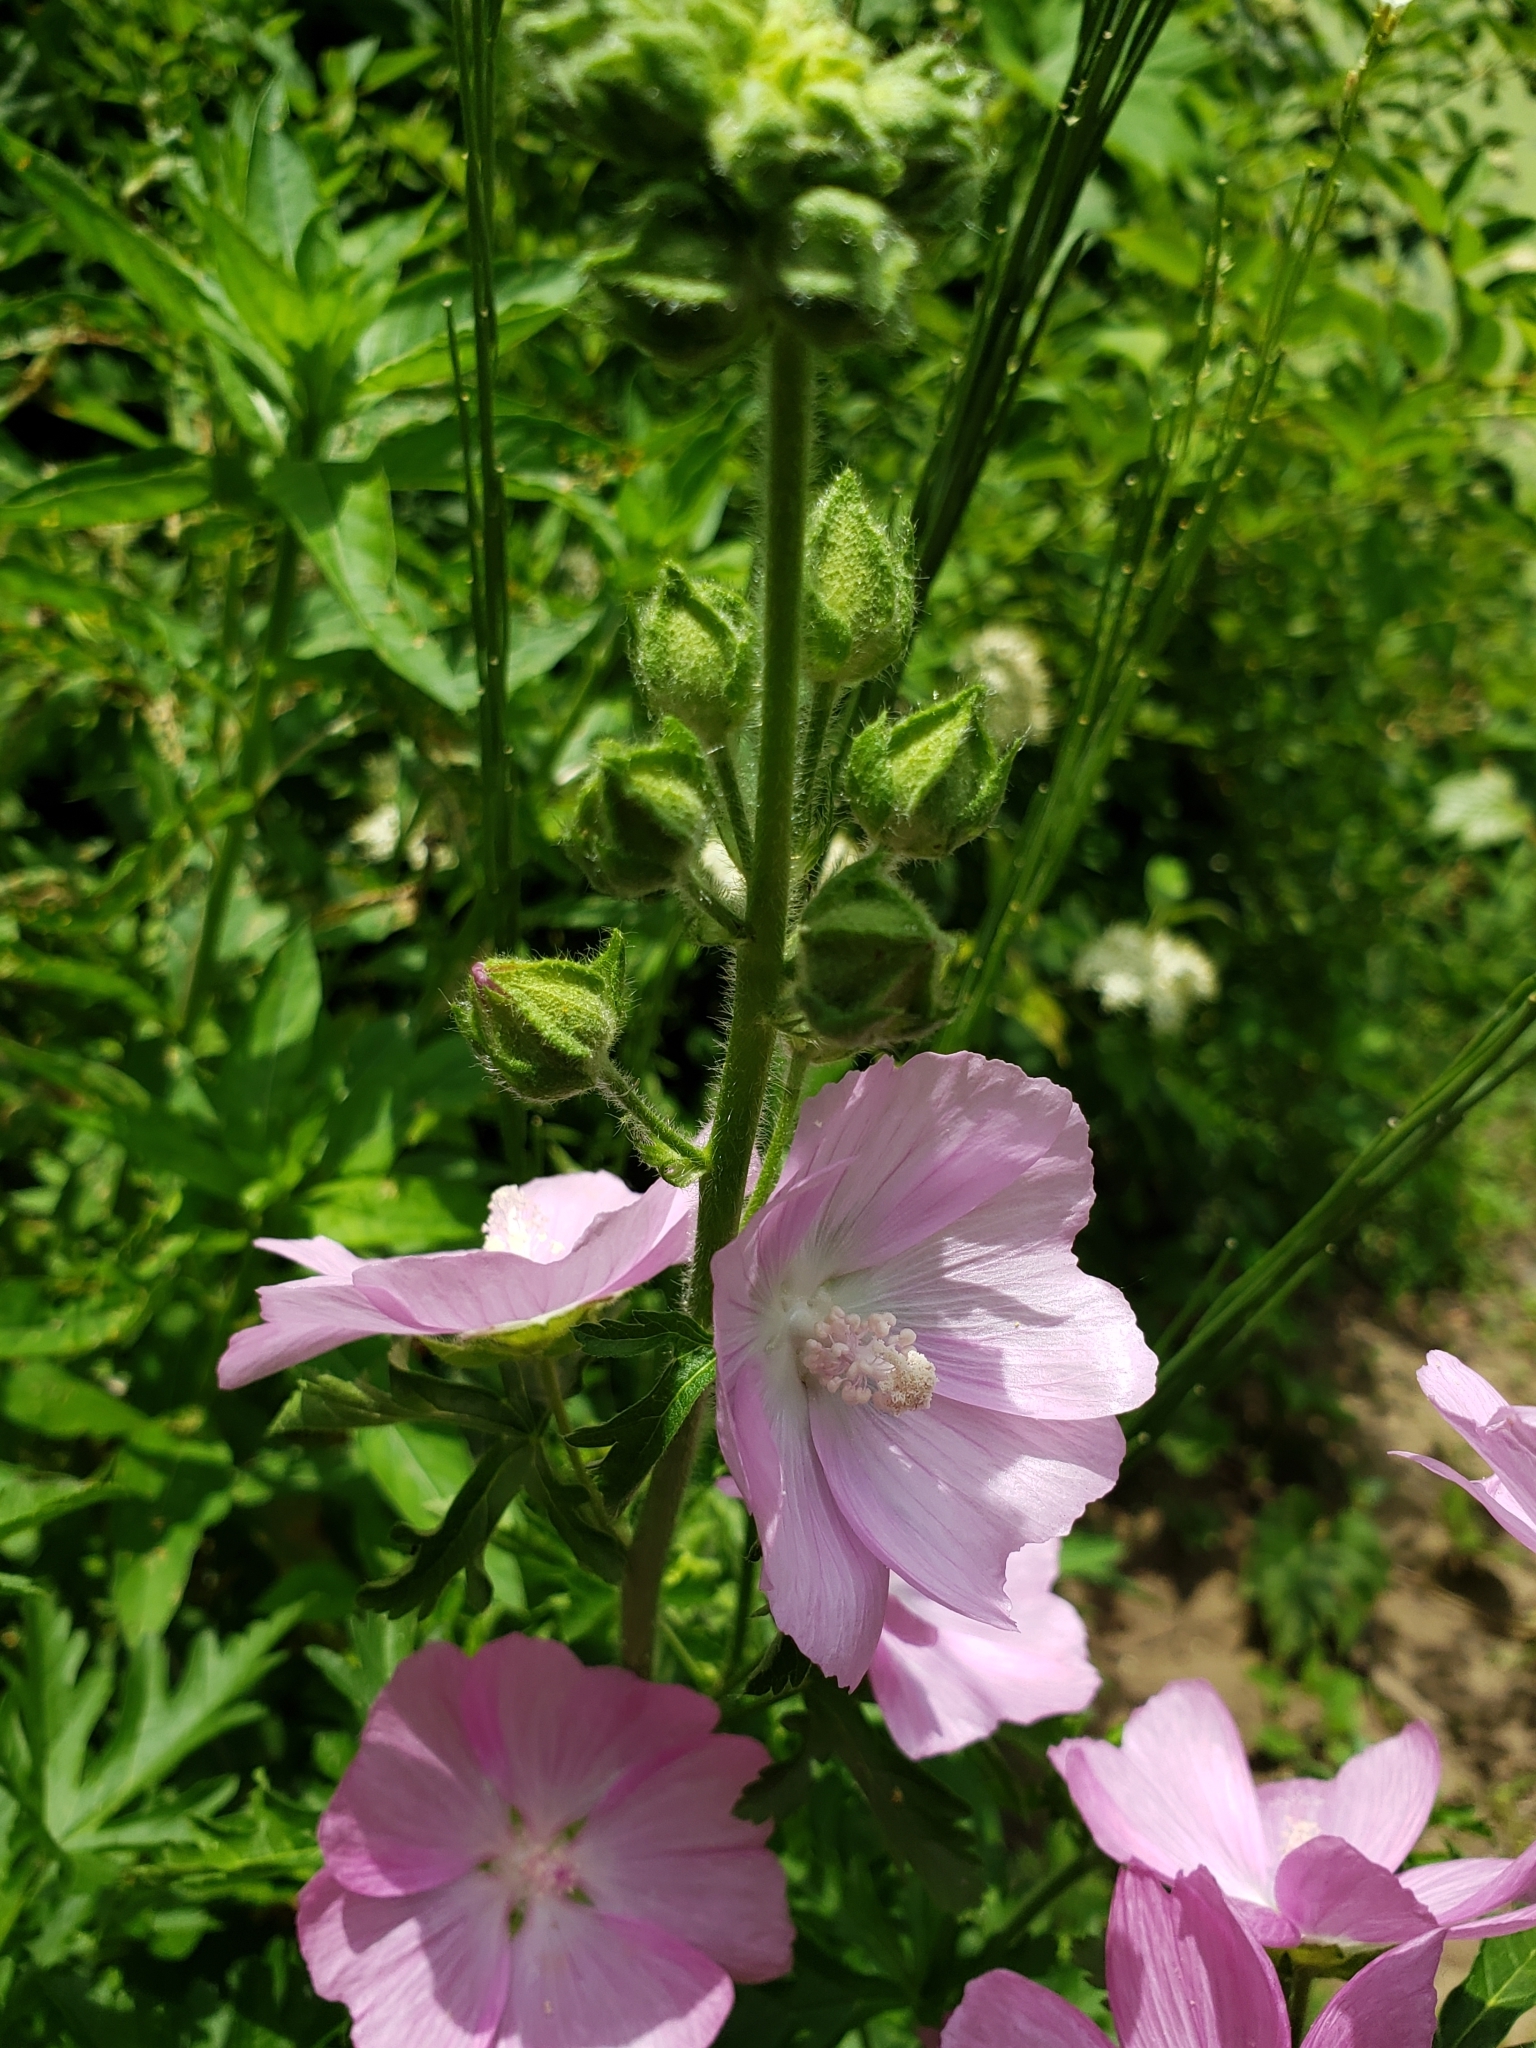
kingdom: Plantae
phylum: Tracheophyta
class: Magnoliopsida
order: Malvales
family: Malvaceae
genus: Malva
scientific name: Malva moschata
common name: Musk mallow
